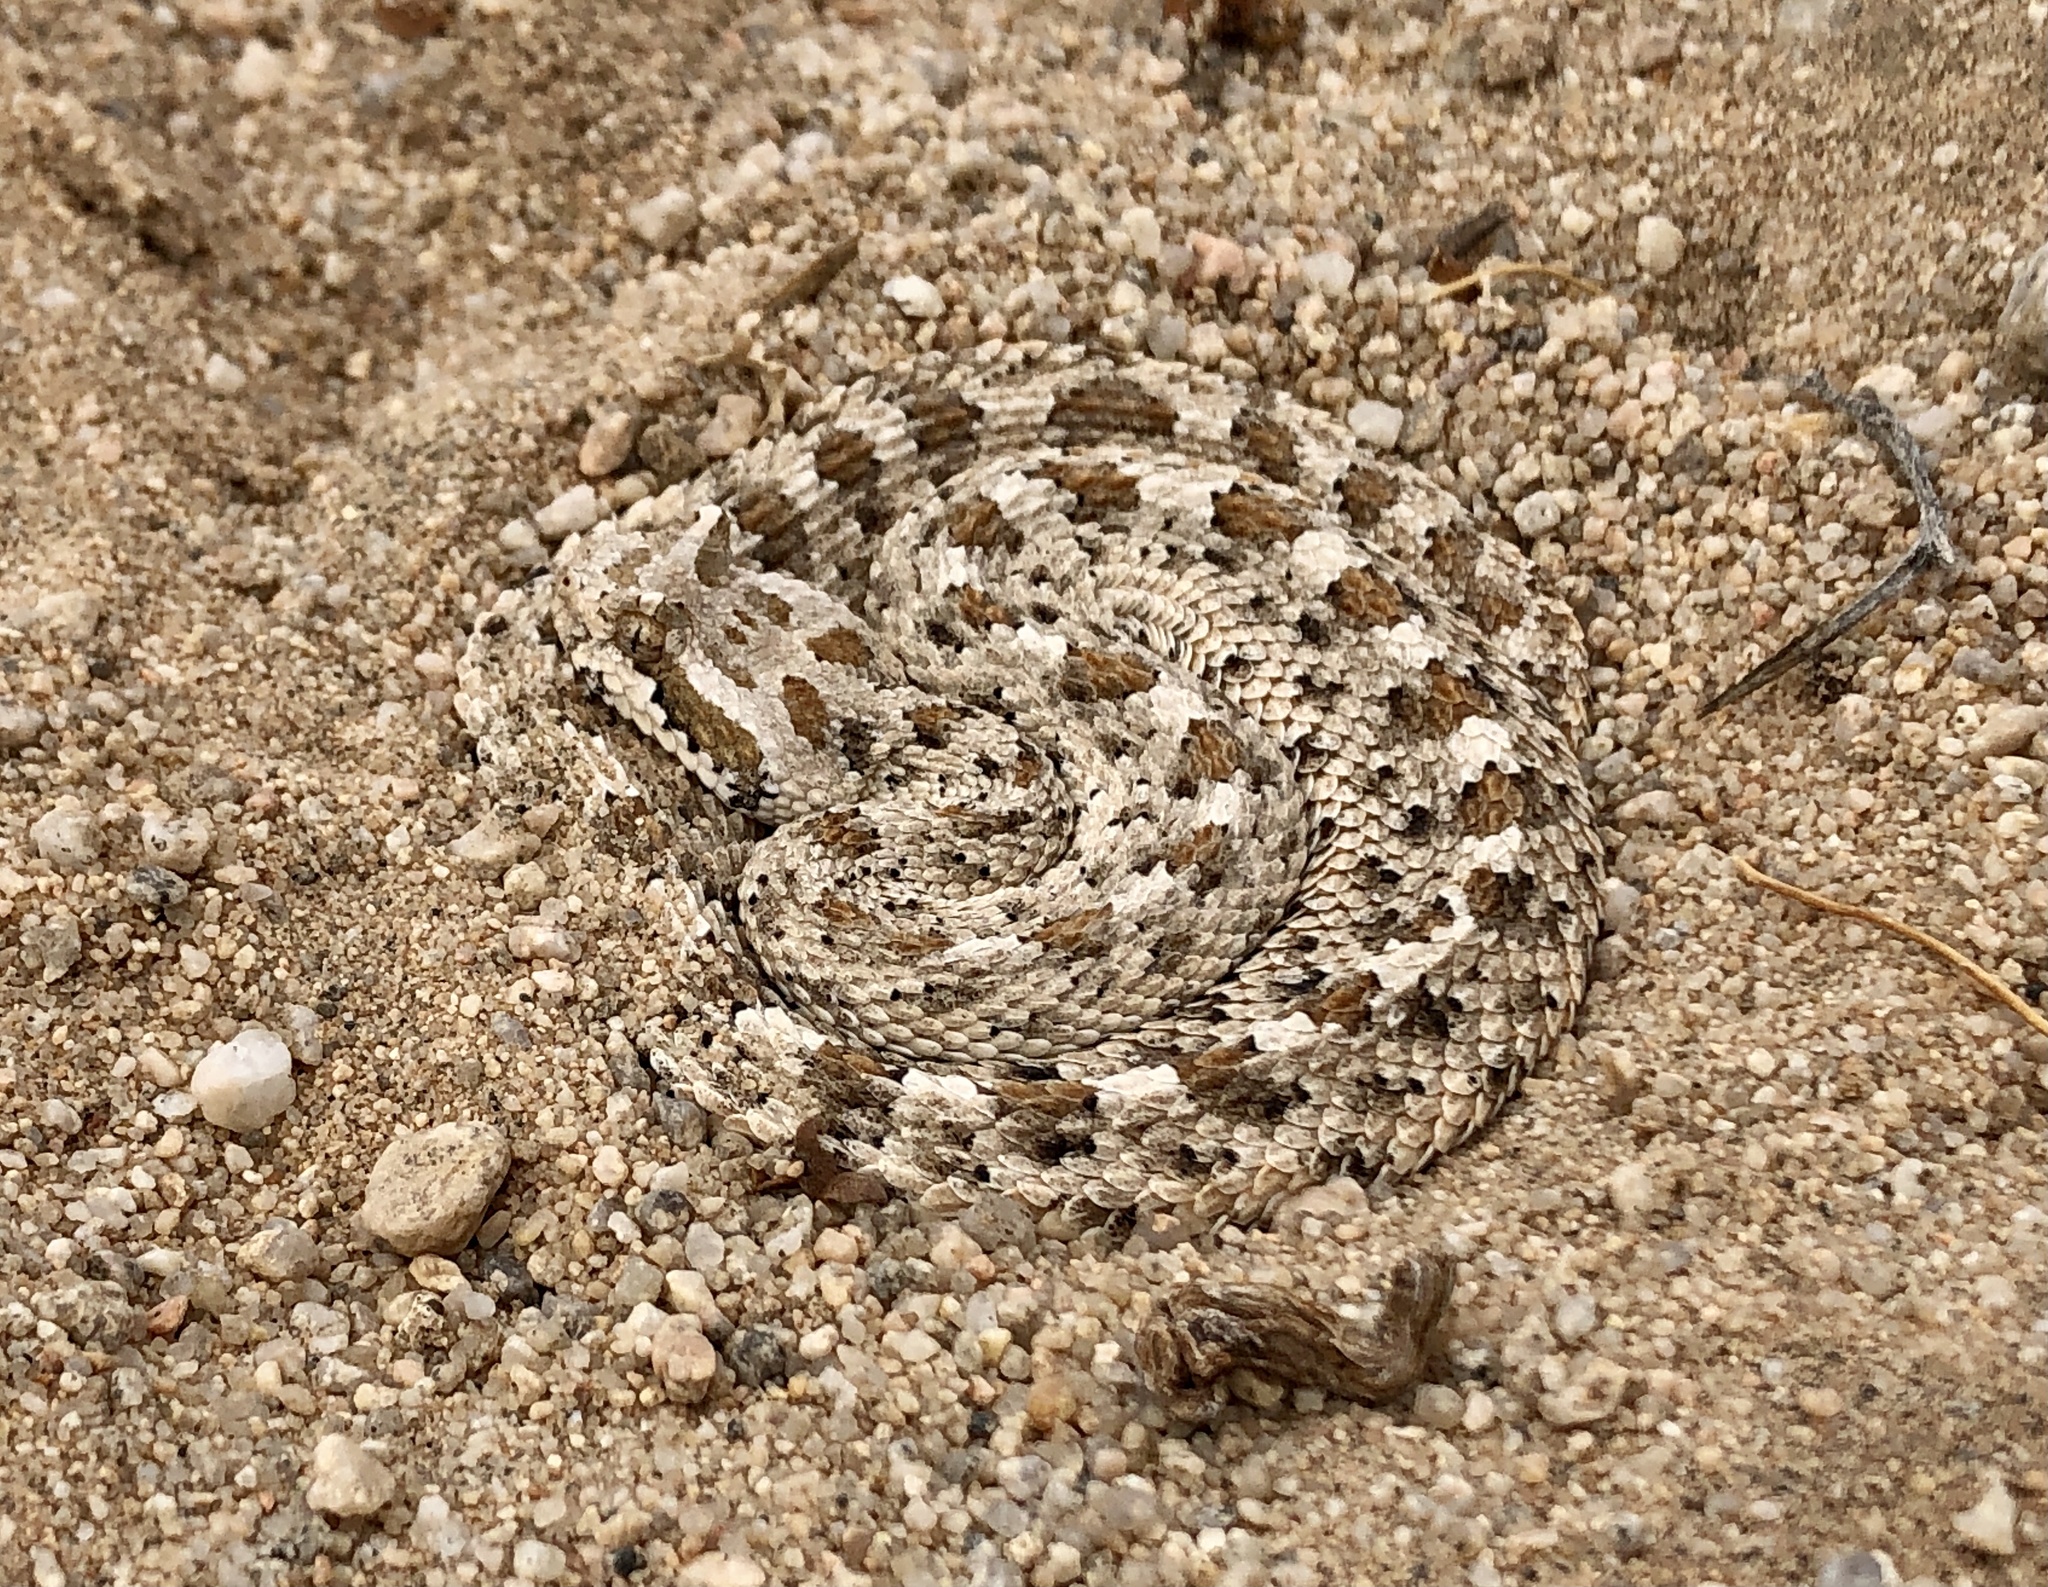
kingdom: Animalia
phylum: Chordata
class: Squamata
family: Viperidae
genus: Crotalus
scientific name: Crotalus cerastes
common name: Sidewinder
